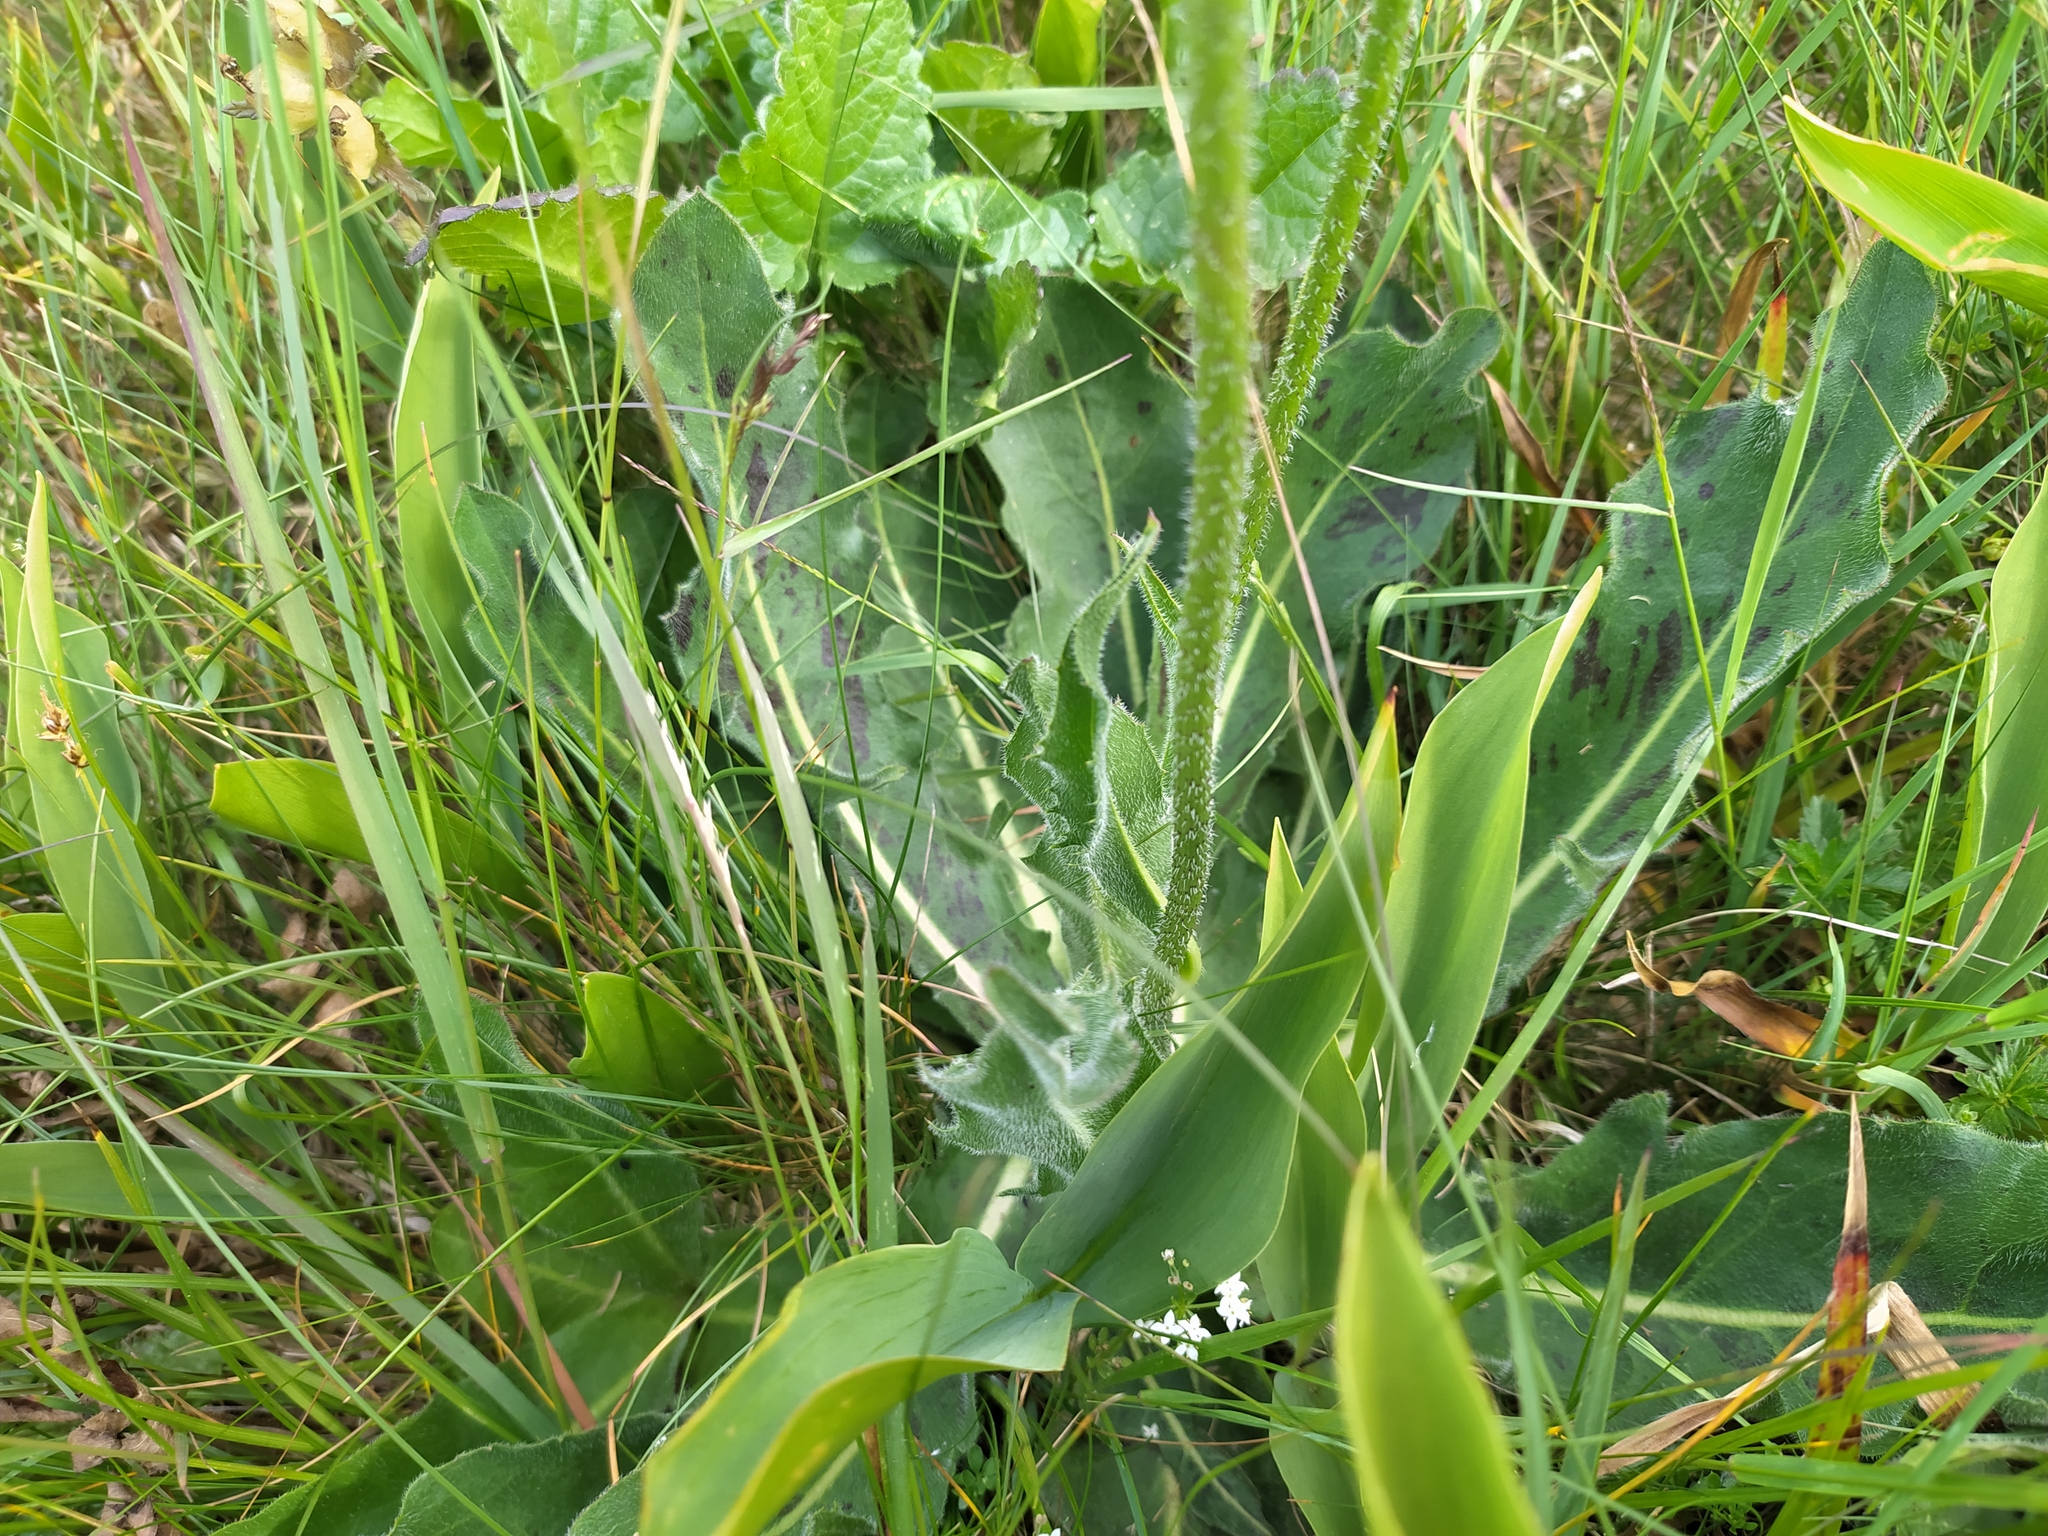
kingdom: Plantae
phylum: Tracheophyta
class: Magnoliopsida
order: Asterales
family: Asteraceae
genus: Trommsdorffia
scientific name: Trommsdorffia maculata
